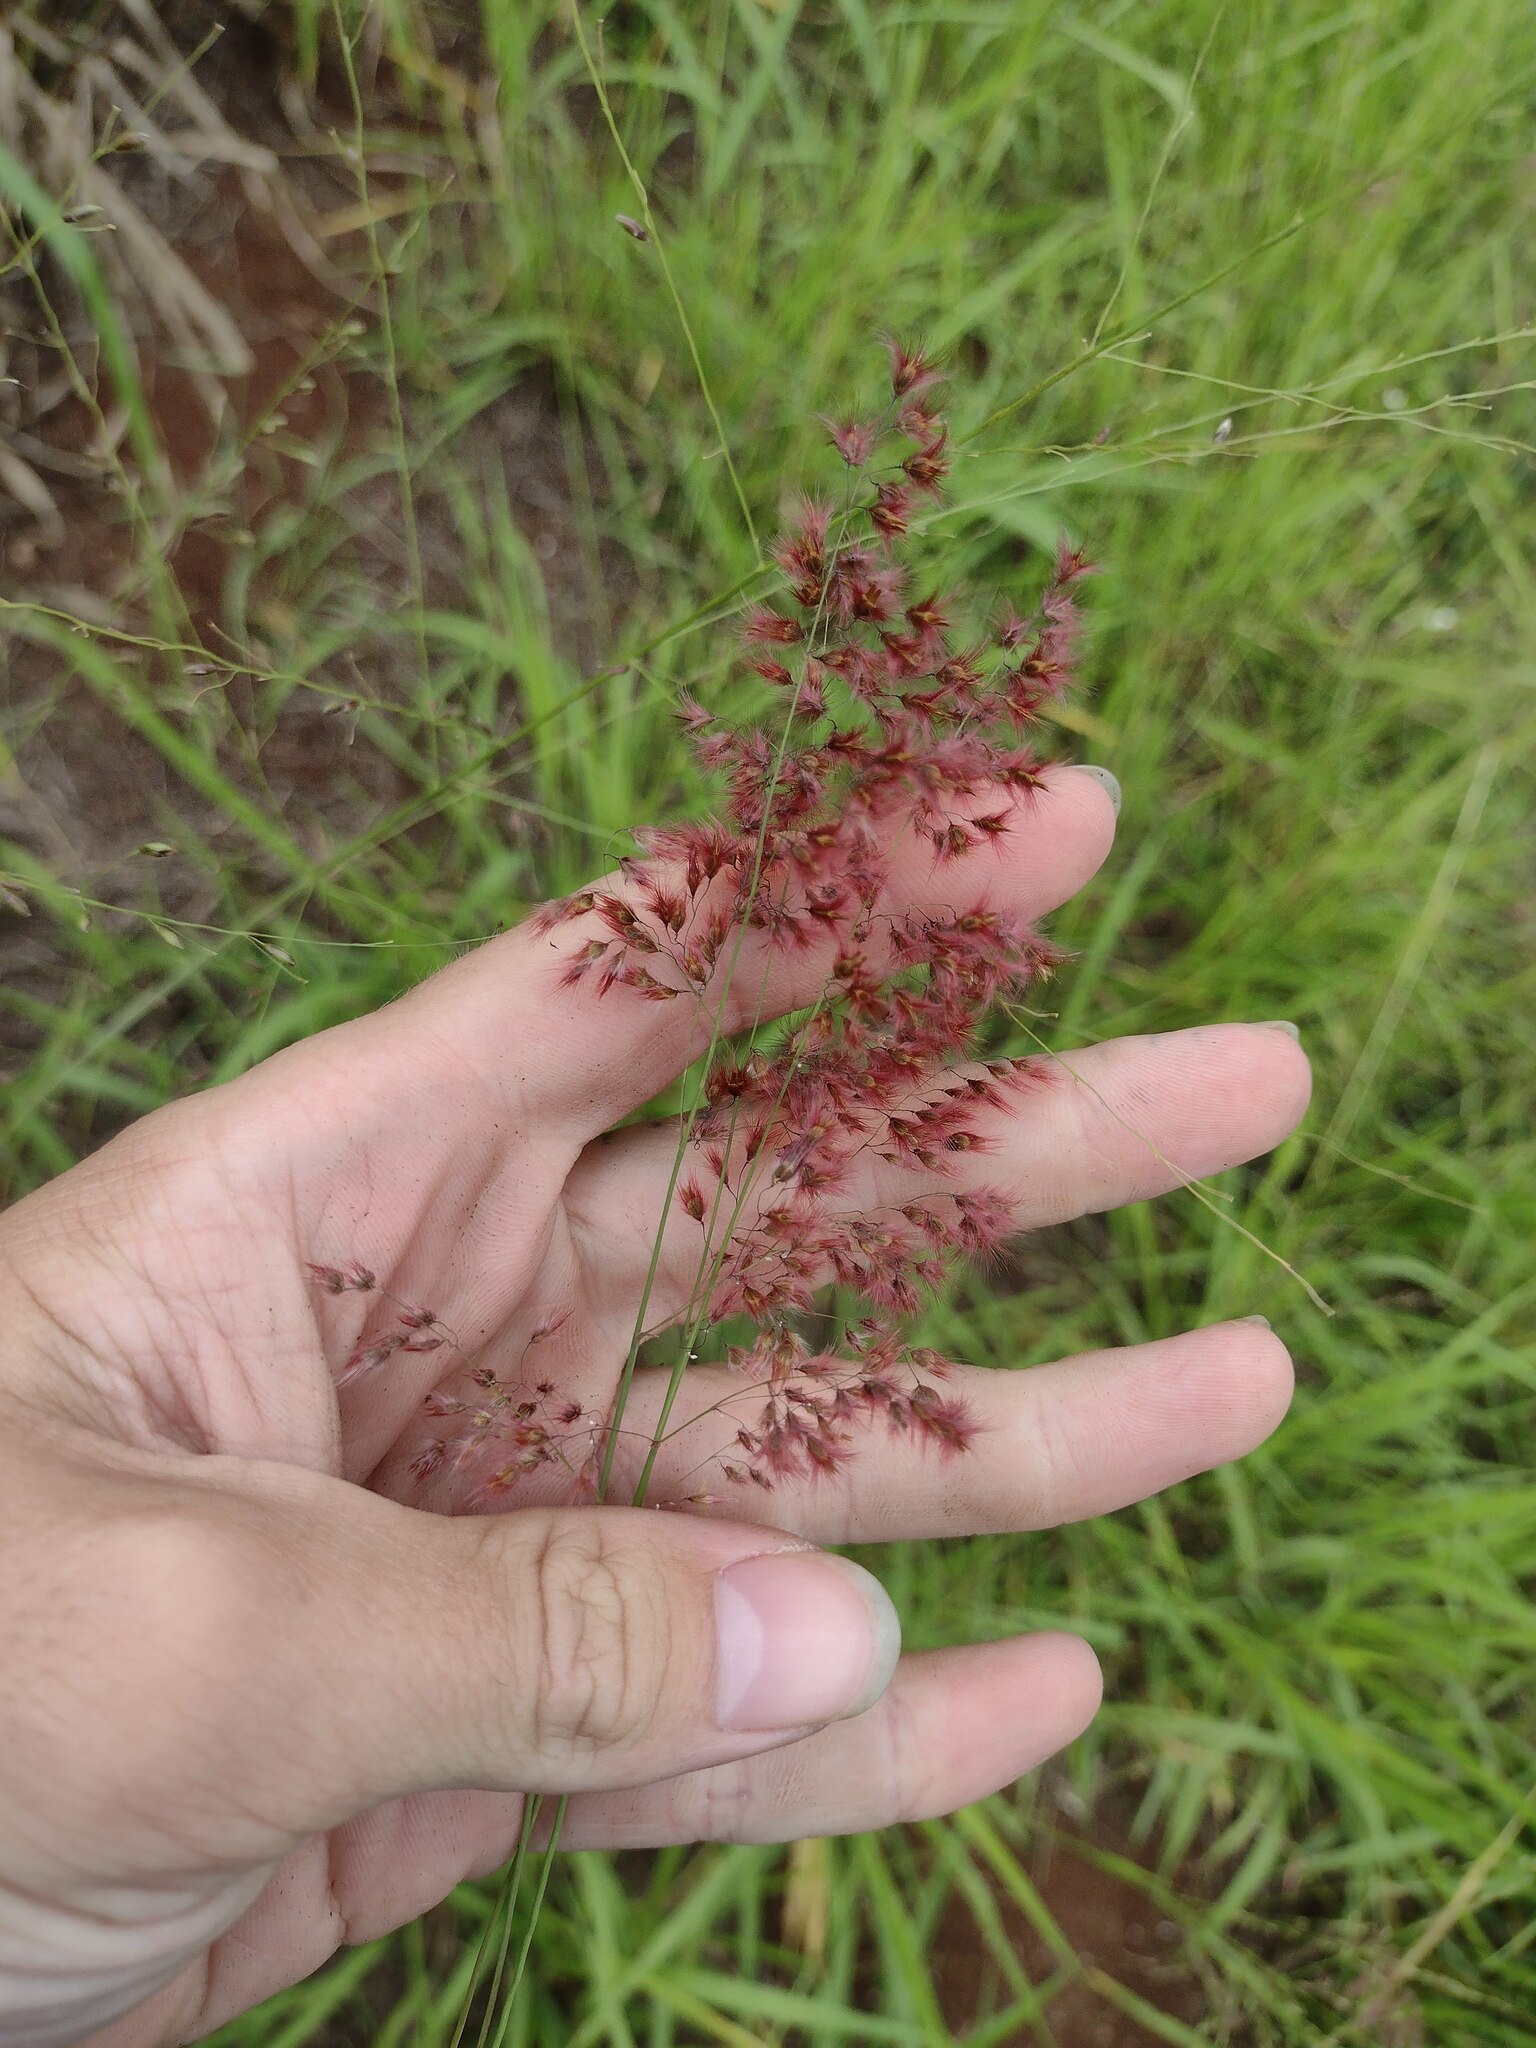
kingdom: Plantae
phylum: Tracheophyta
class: Liliopsida
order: Poales
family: Poaceae
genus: Melinis
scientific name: Melinis repens
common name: Rose natal grass
